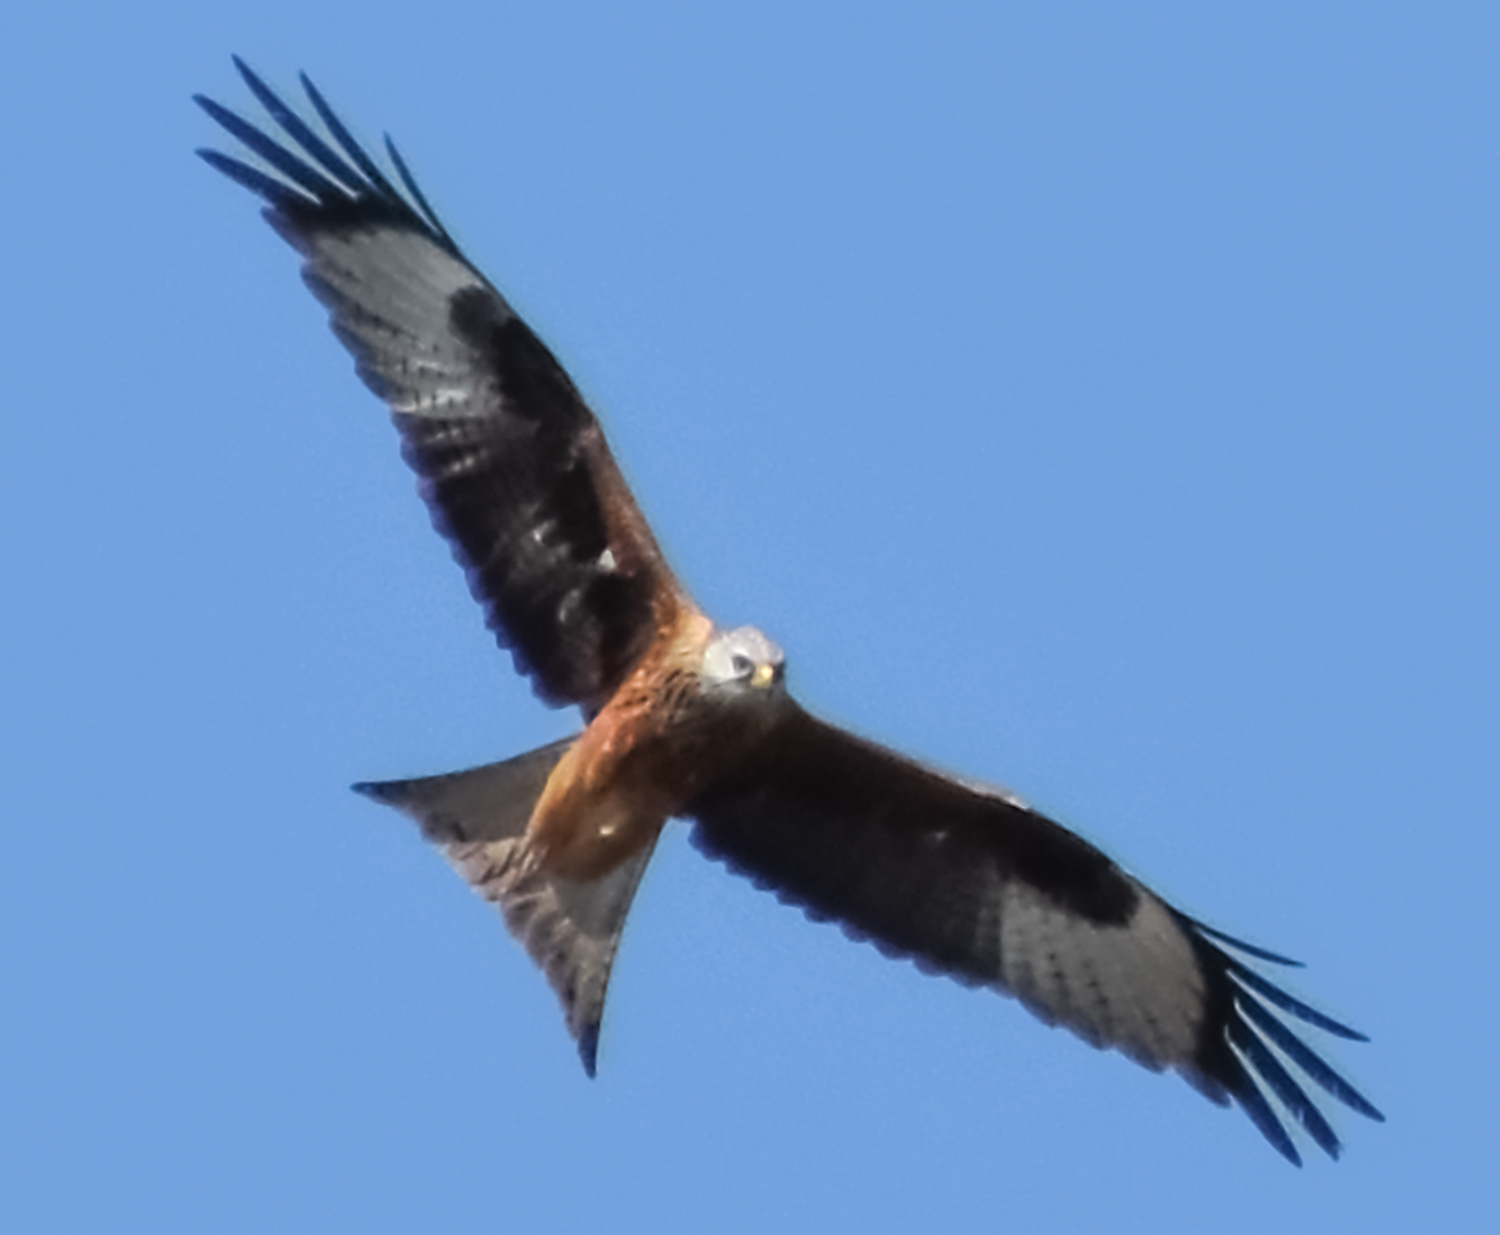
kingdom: Animalia
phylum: Chordata
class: Aves
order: Accipitriformes
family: Accipitridae
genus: Milvus
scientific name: Milvus milvus
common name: Red kite
